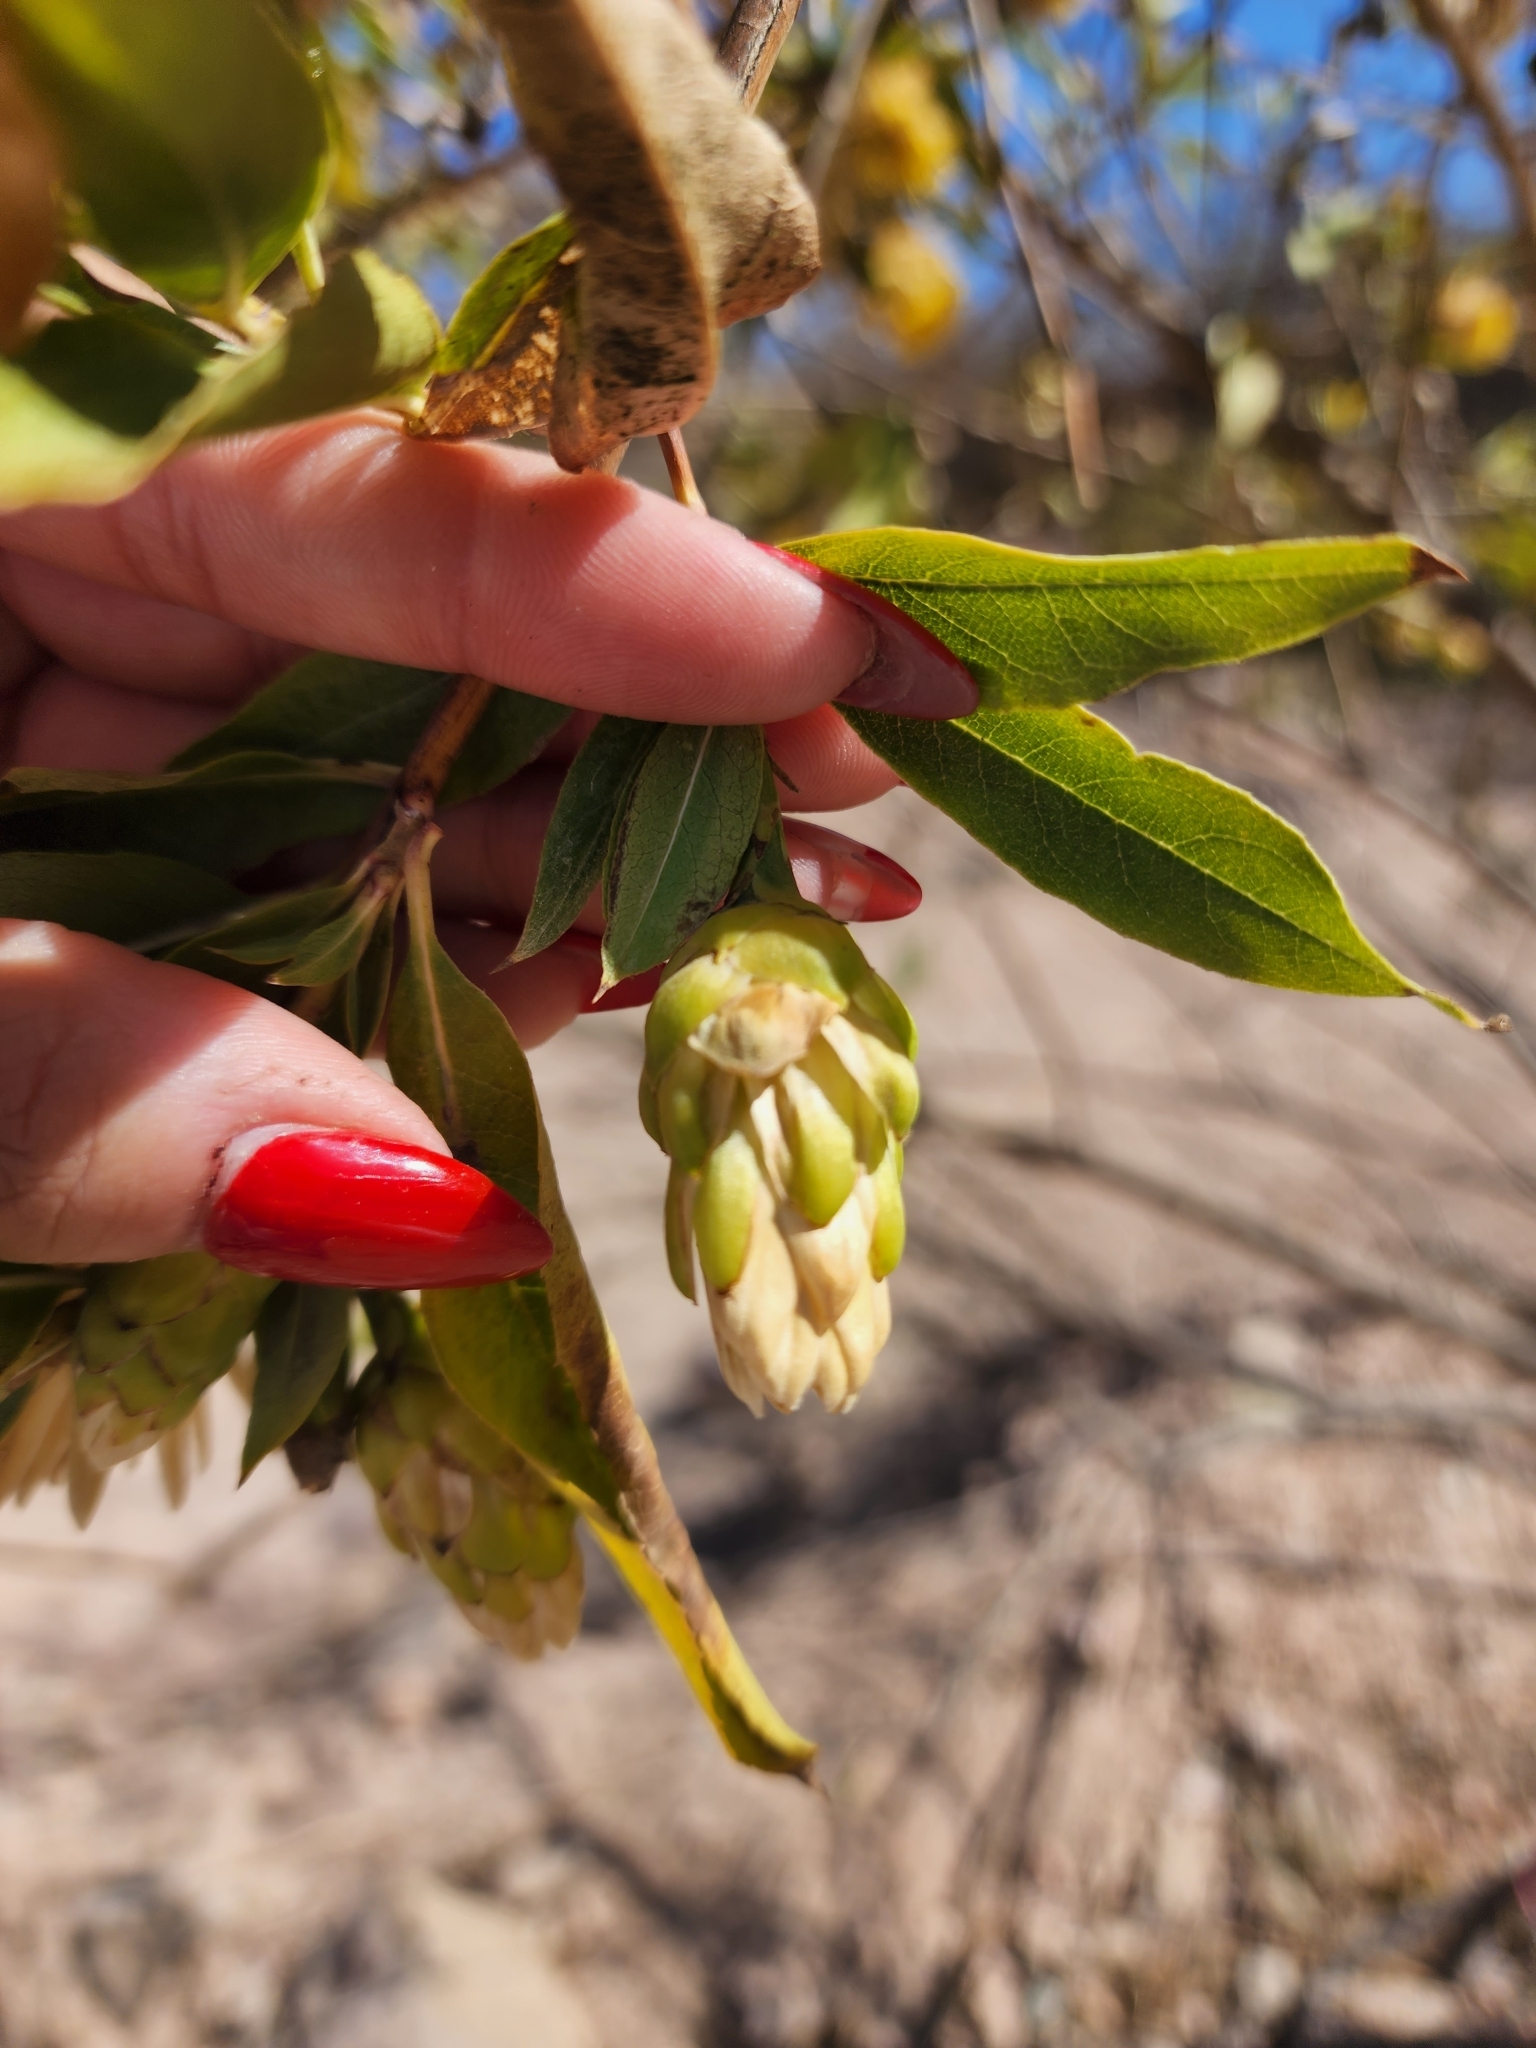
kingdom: Plantae
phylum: Tracheophyta
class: Magnoliopsida
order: Asterales
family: Asteraceae
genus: Hyaloseris
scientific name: Hyaloseris salicifolia
